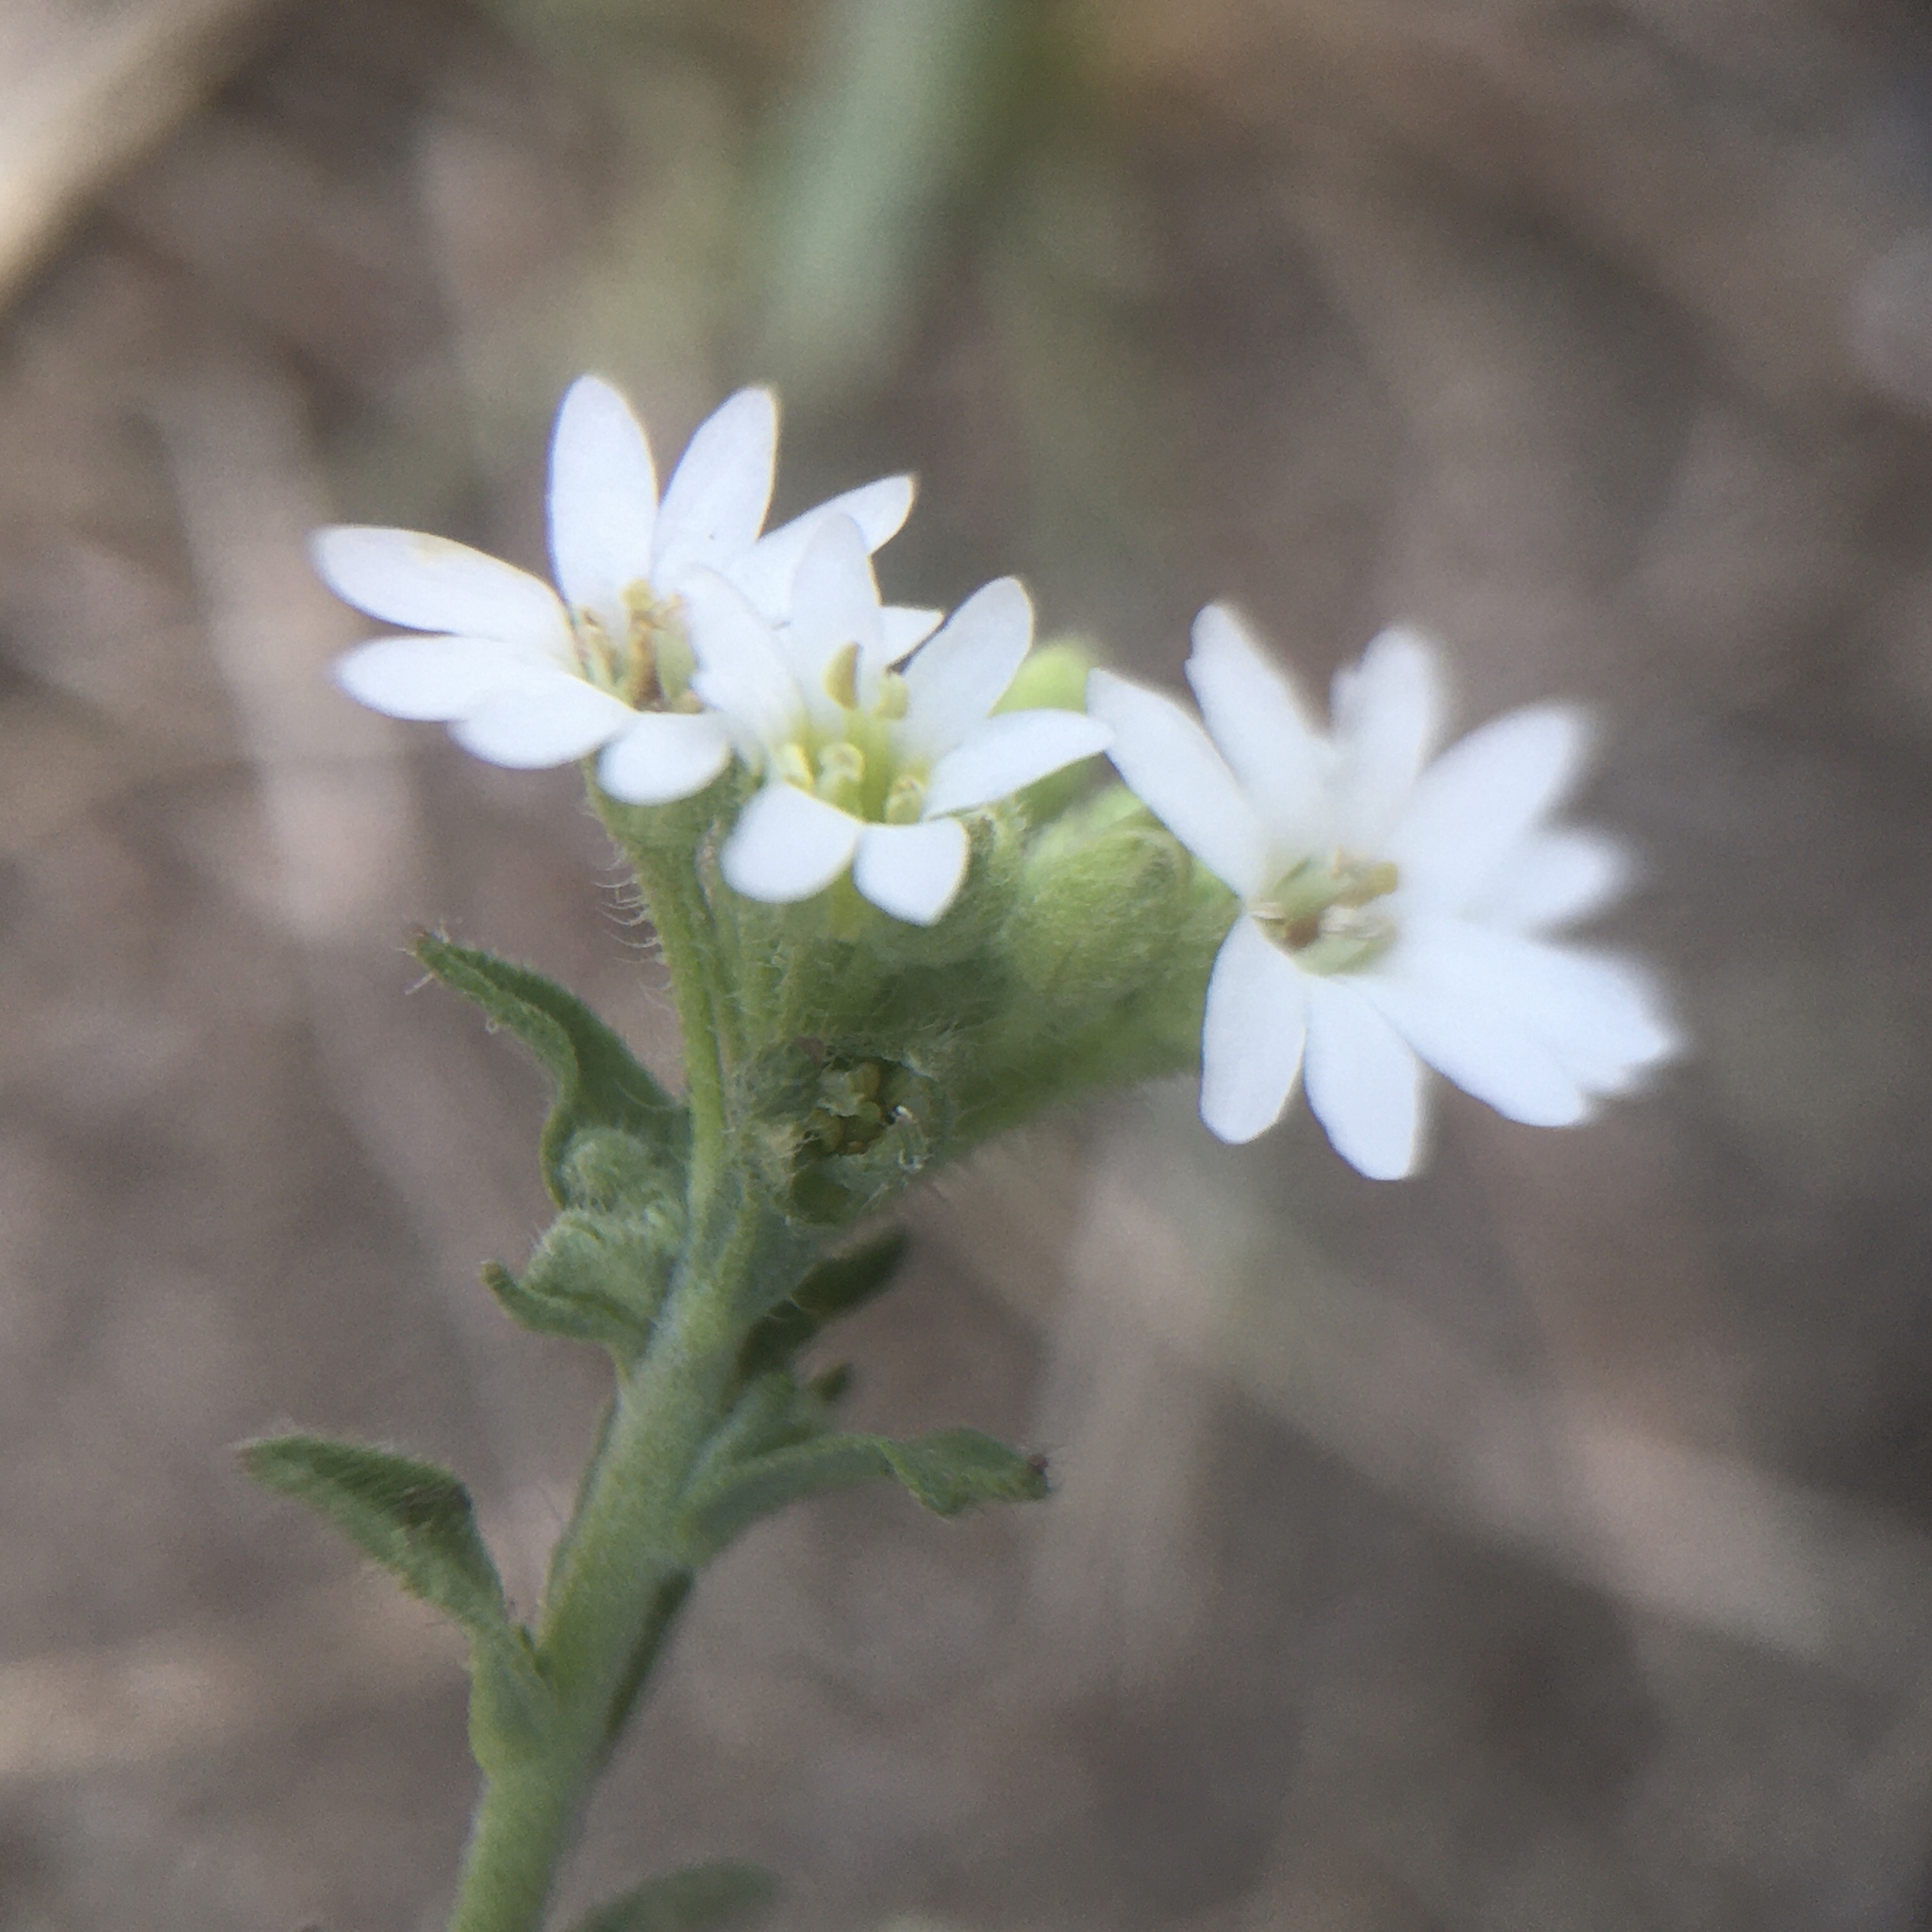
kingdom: Plantae
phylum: Tracheophyta
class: Magnoliopsida
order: Brassicales
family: Brassicaceae
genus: Berteroa
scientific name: Berteroa incana
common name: Hoary alison
